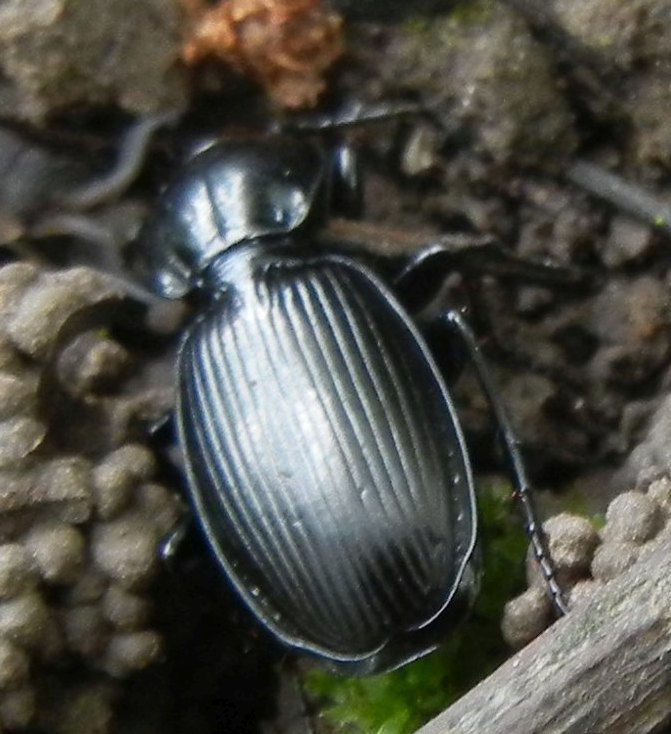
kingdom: Animalia
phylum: Arthropoda
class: Insecta
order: Coleoptera
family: Carabidae
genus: Pterostichus
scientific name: Pterostichus madidus
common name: Black clock
